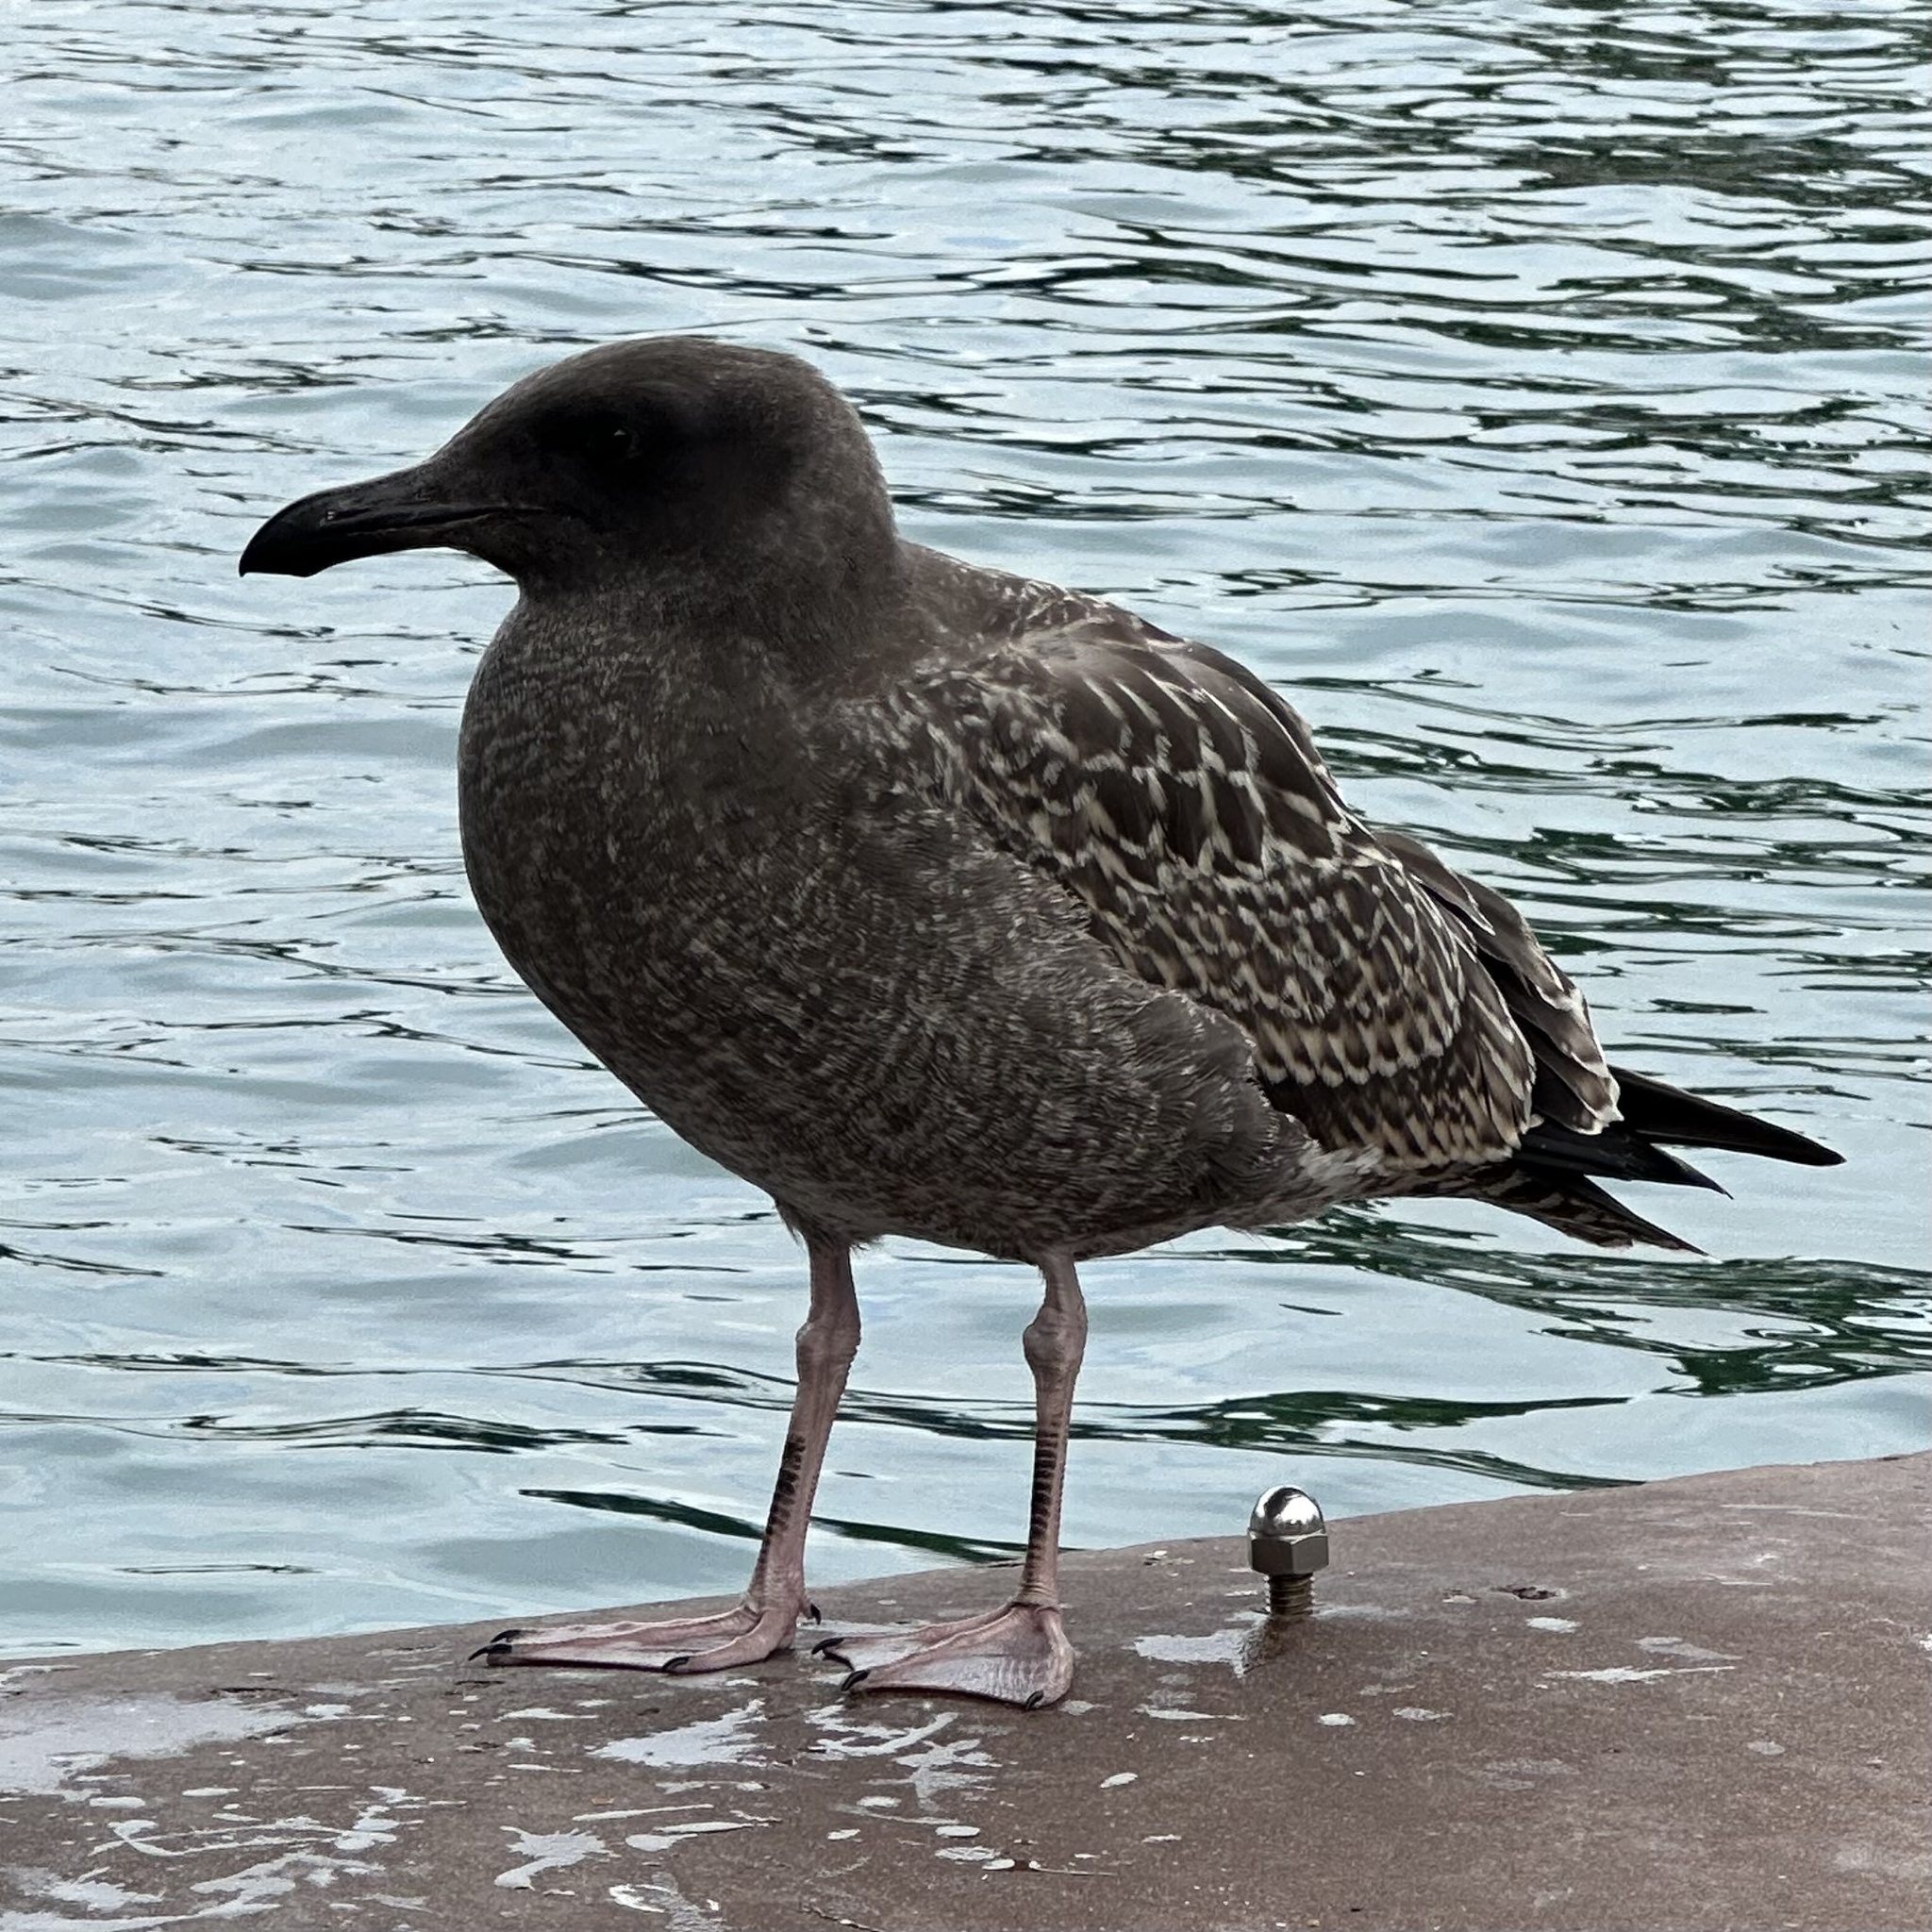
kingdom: Animalia
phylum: Chordata
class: Aves
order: Charadriiformes
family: Laridae
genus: Larus
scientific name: Larus occidentalis
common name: Western gull
